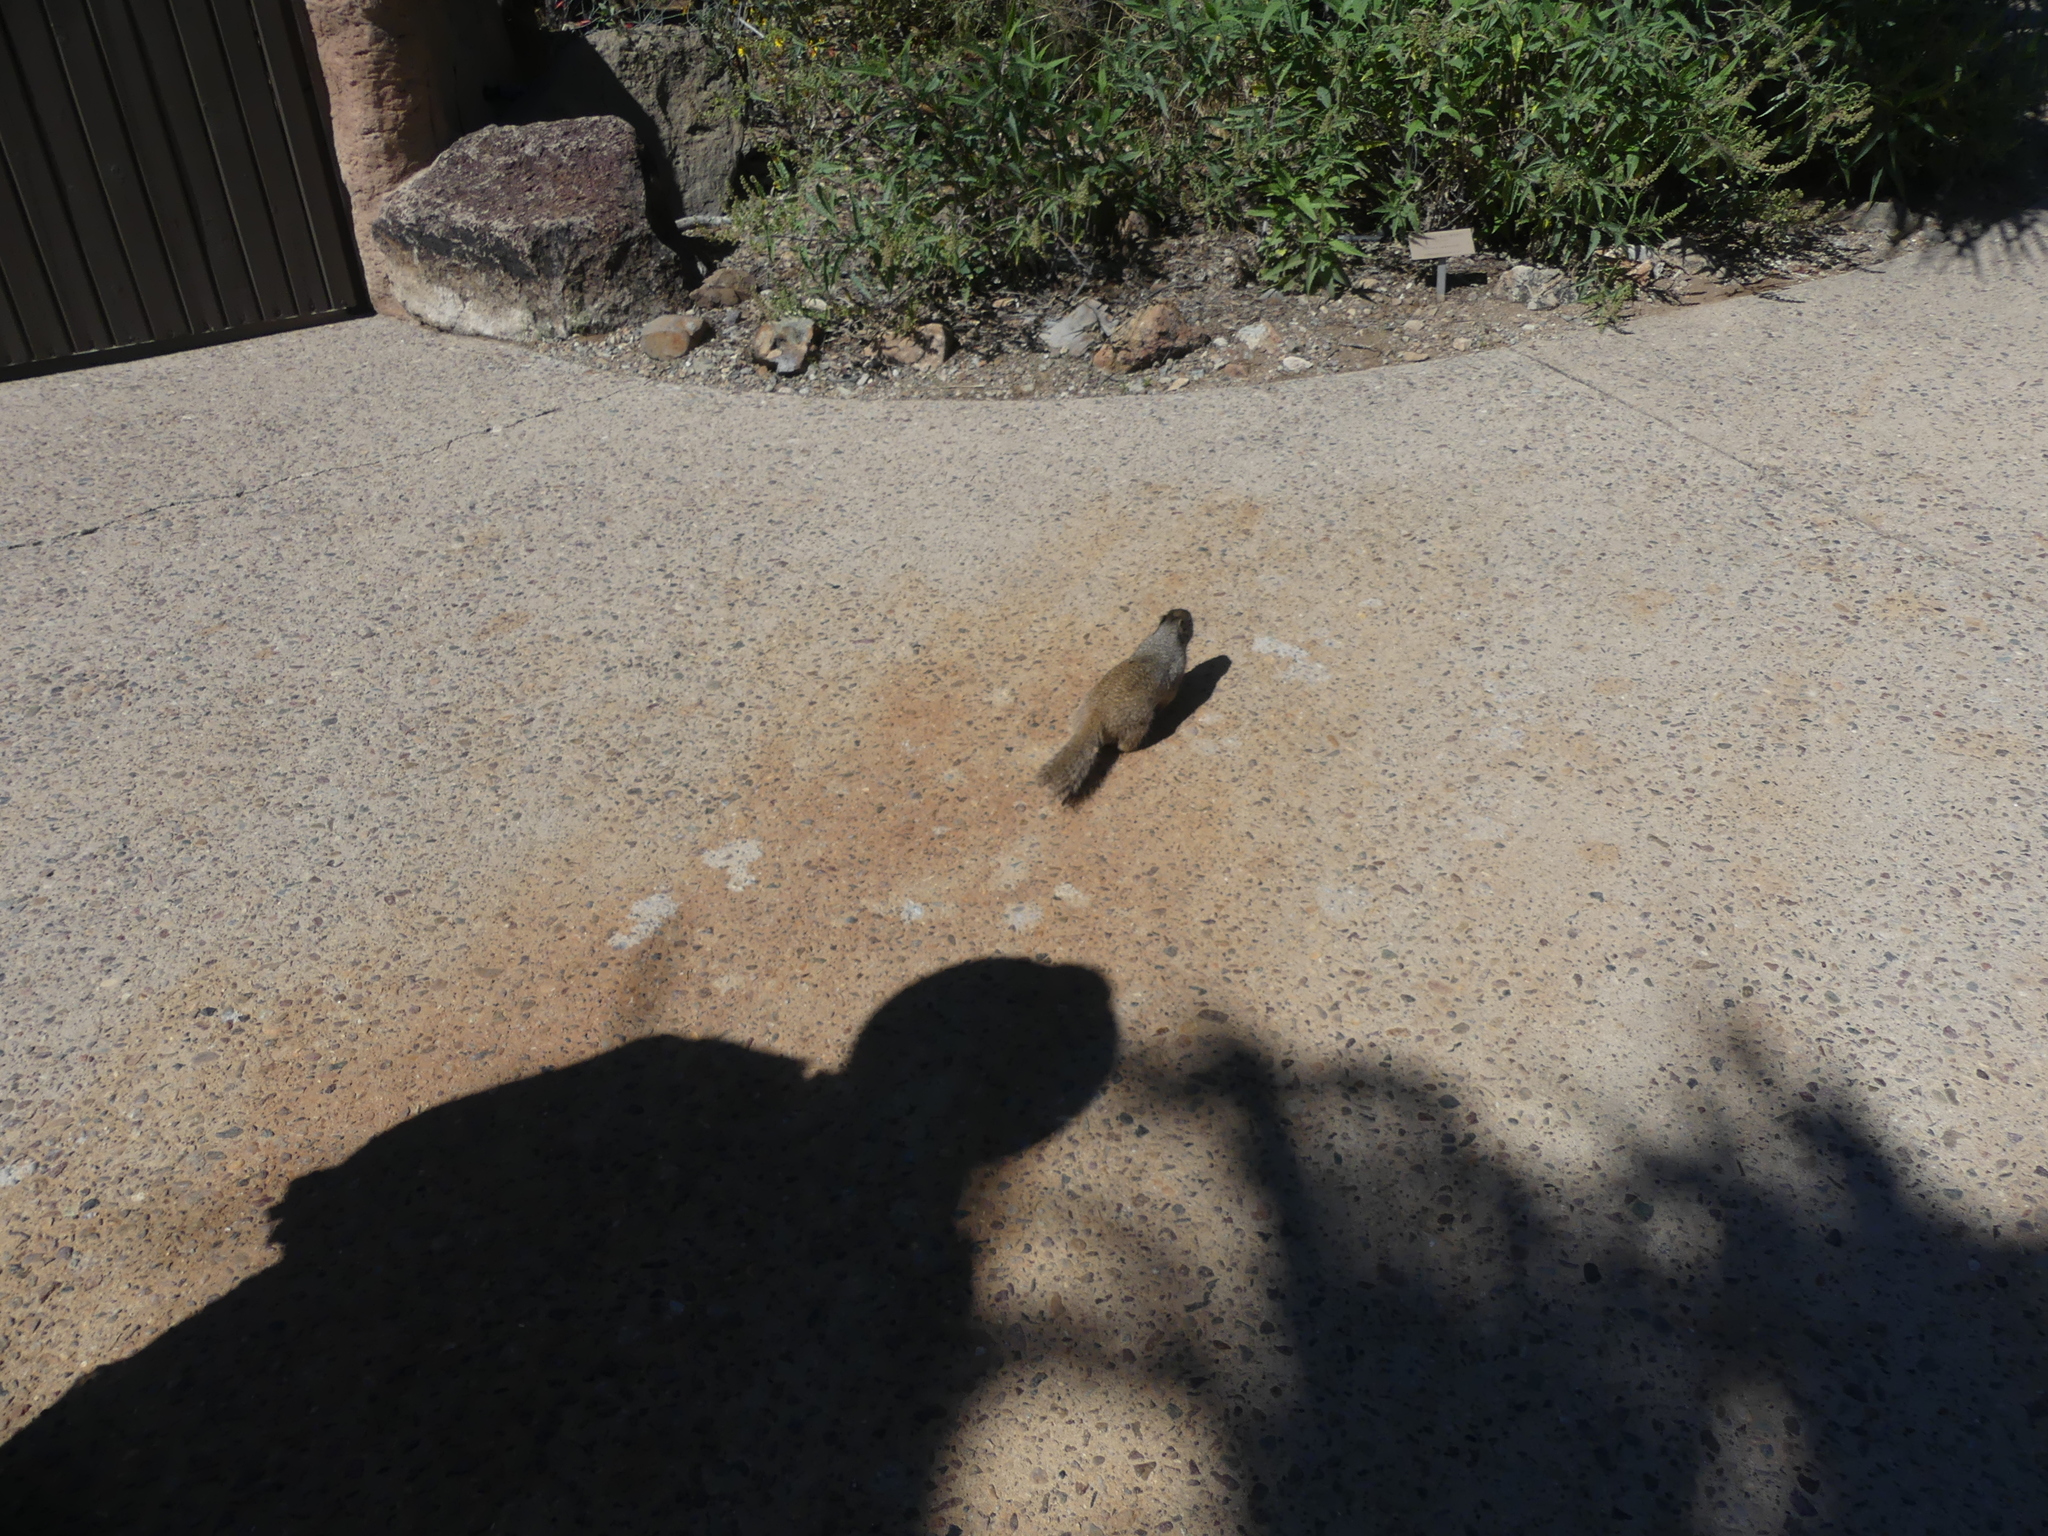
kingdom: Animalia
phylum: Chordata
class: Mammalia
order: Rodentia
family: Sciuridae
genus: Otospermophilus
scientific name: Otospermophilus variegatus
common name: Rock squirrel
